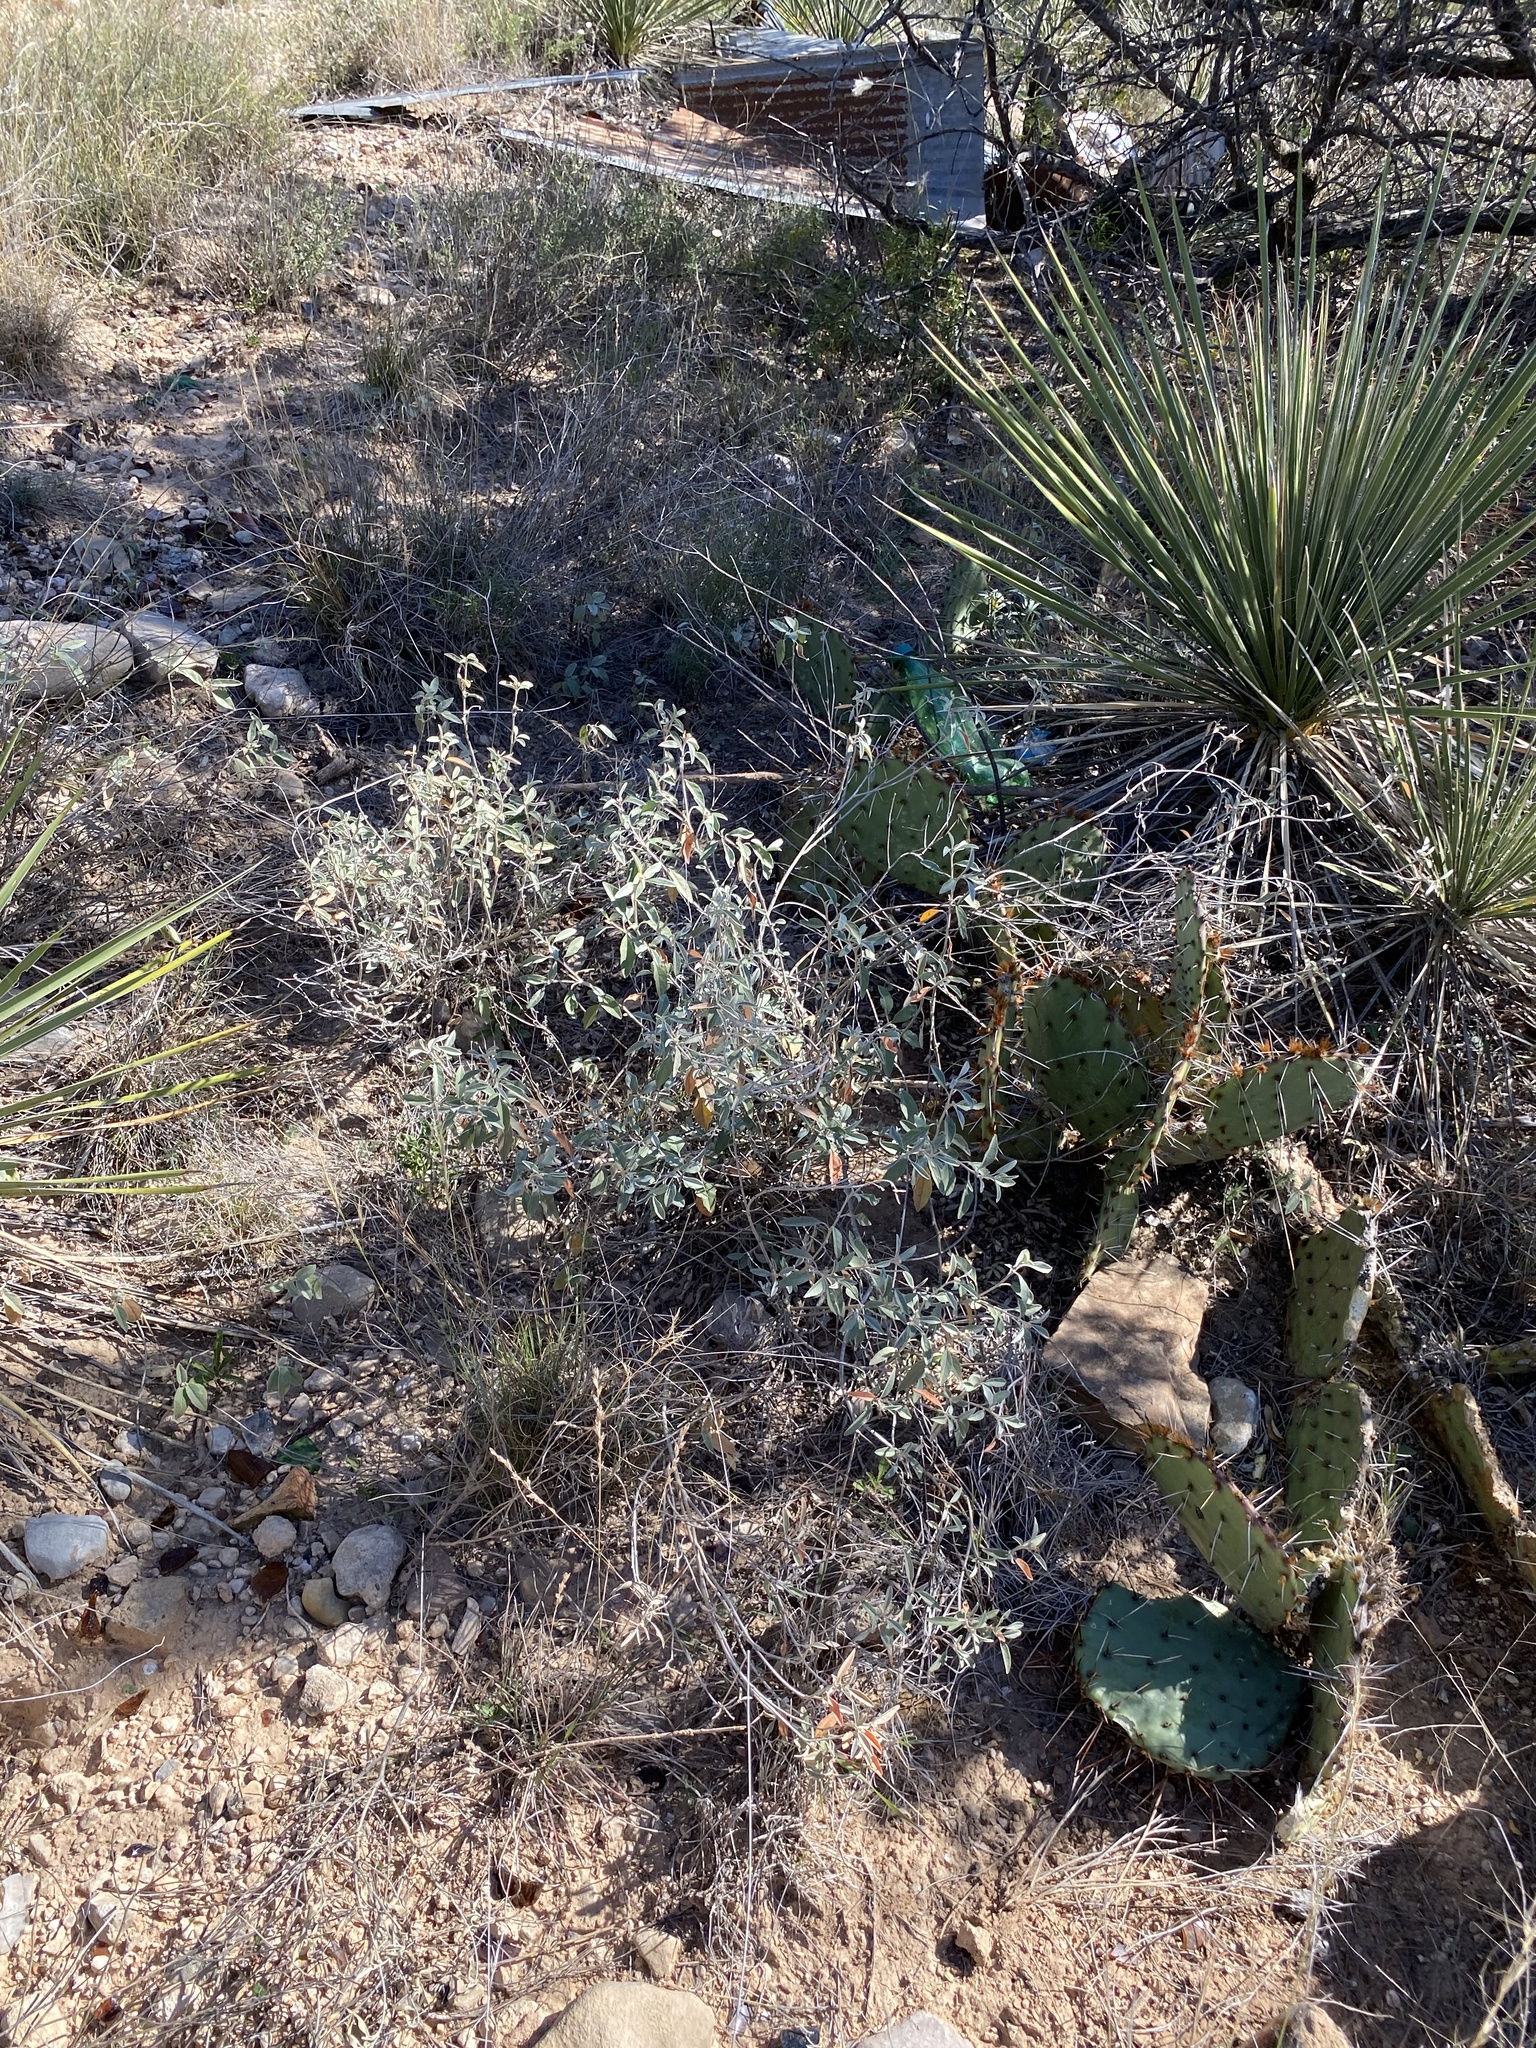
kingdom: Plantae
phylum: Tracheophyta
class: Magnoliopsida
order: Malpighiales
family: Euphorbiaceae
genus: Croton
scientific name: Croton dioicus
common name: Grassland croton
